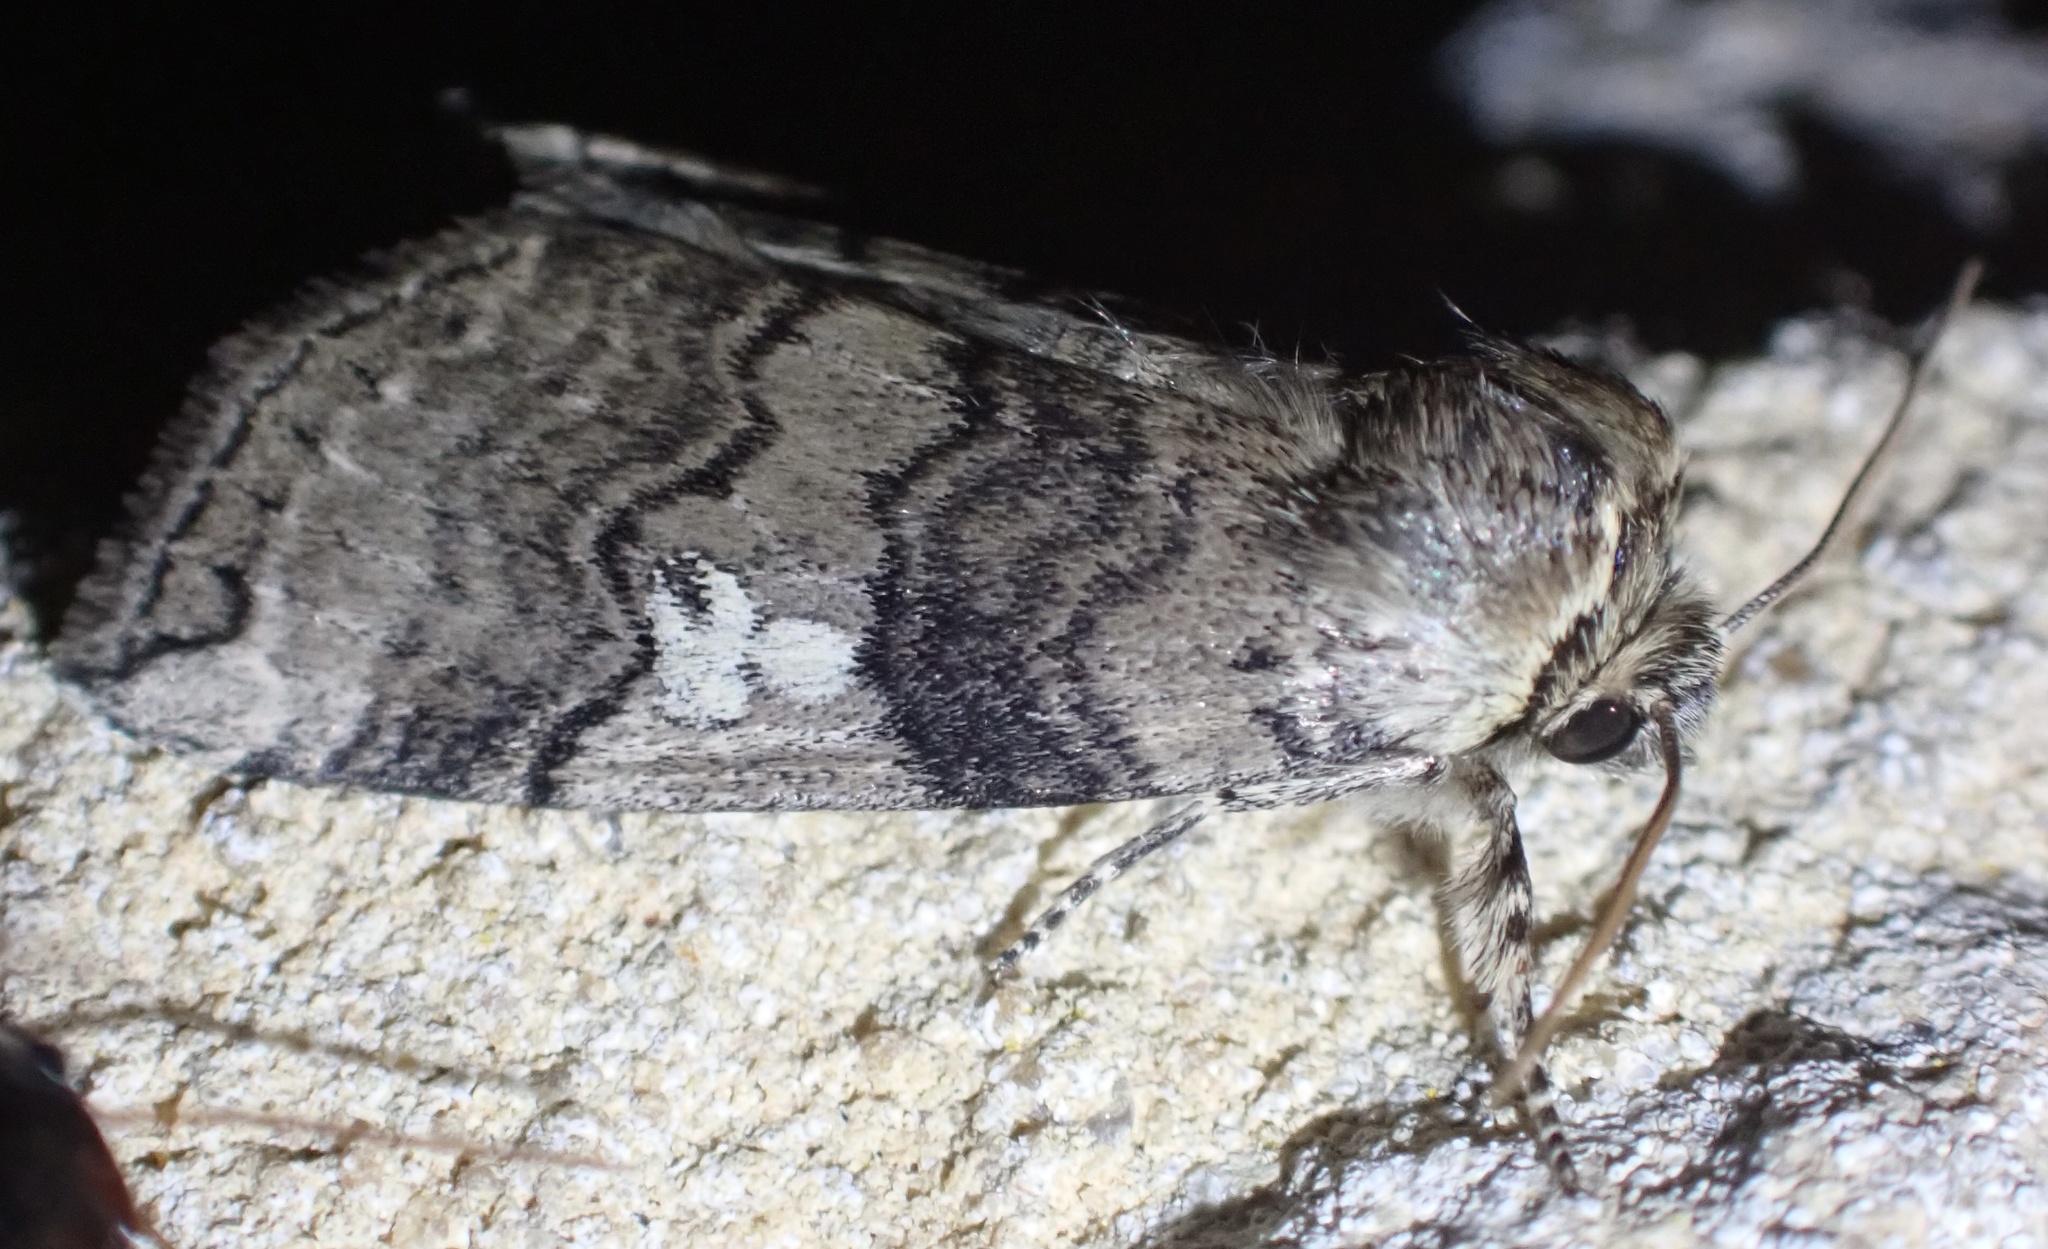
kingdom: Animalia
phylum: Arthropoda
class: Insecta
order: Lepidoptera
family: Drepanidae
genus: Tethea
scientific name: Tethea or
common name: Poplar lutestring
